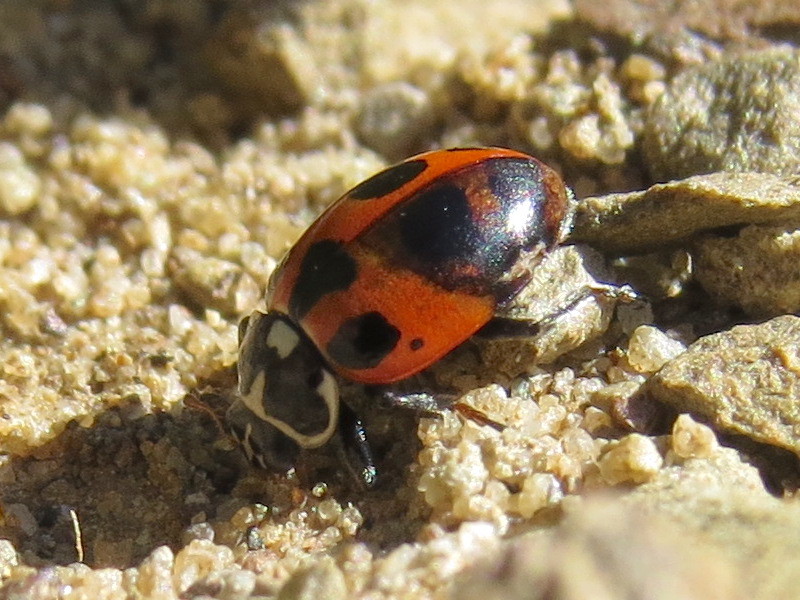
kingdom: Animalia
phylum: Arthropoda
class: Insecta
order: Coleoptera
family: Coccinellidae
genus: Hippodamia
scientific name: Hippodamia parenthesis
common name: Parenthesis lady beetle
